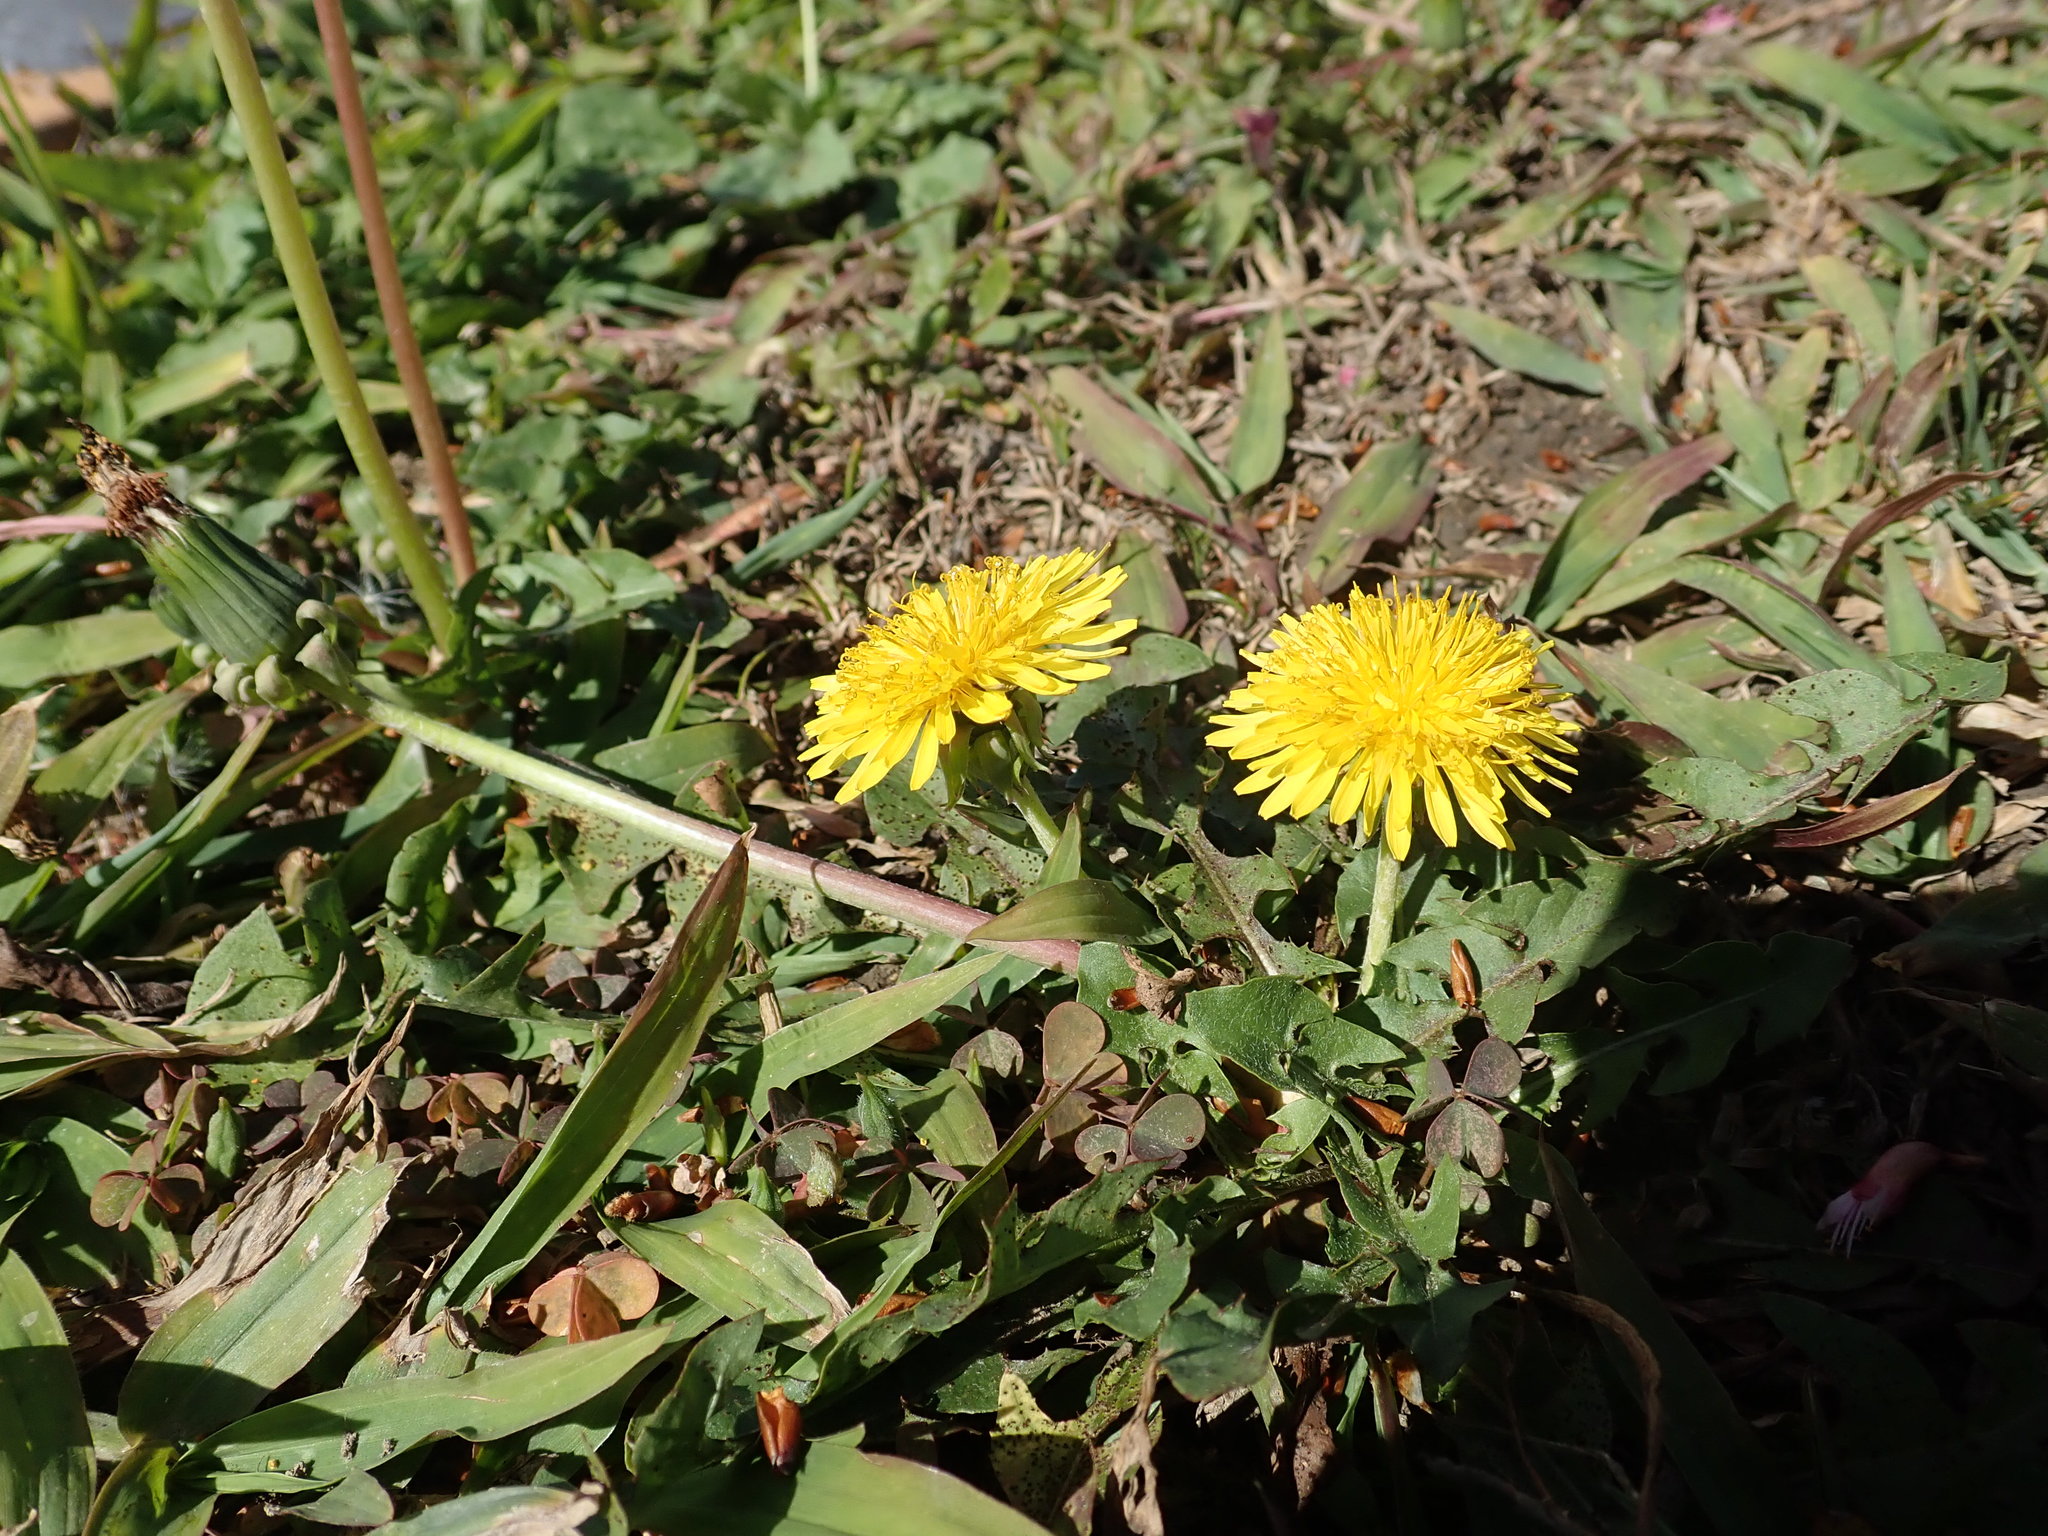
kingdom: Plantae
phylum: Tracheophyta
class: Magnoliopsida
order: Asterales
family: Asteraceae
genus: Taraxacum
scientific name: Taraxacum officinale
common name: Common dandelion
